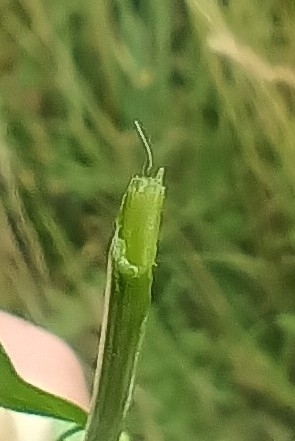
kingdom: Plantae
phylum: Tracheophyta
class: Magnoliopsida
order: Fabales
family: Fabaceae
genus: Lotus
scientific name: Lotus pedunculatus
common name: Greater birdsfoot-trefoil
